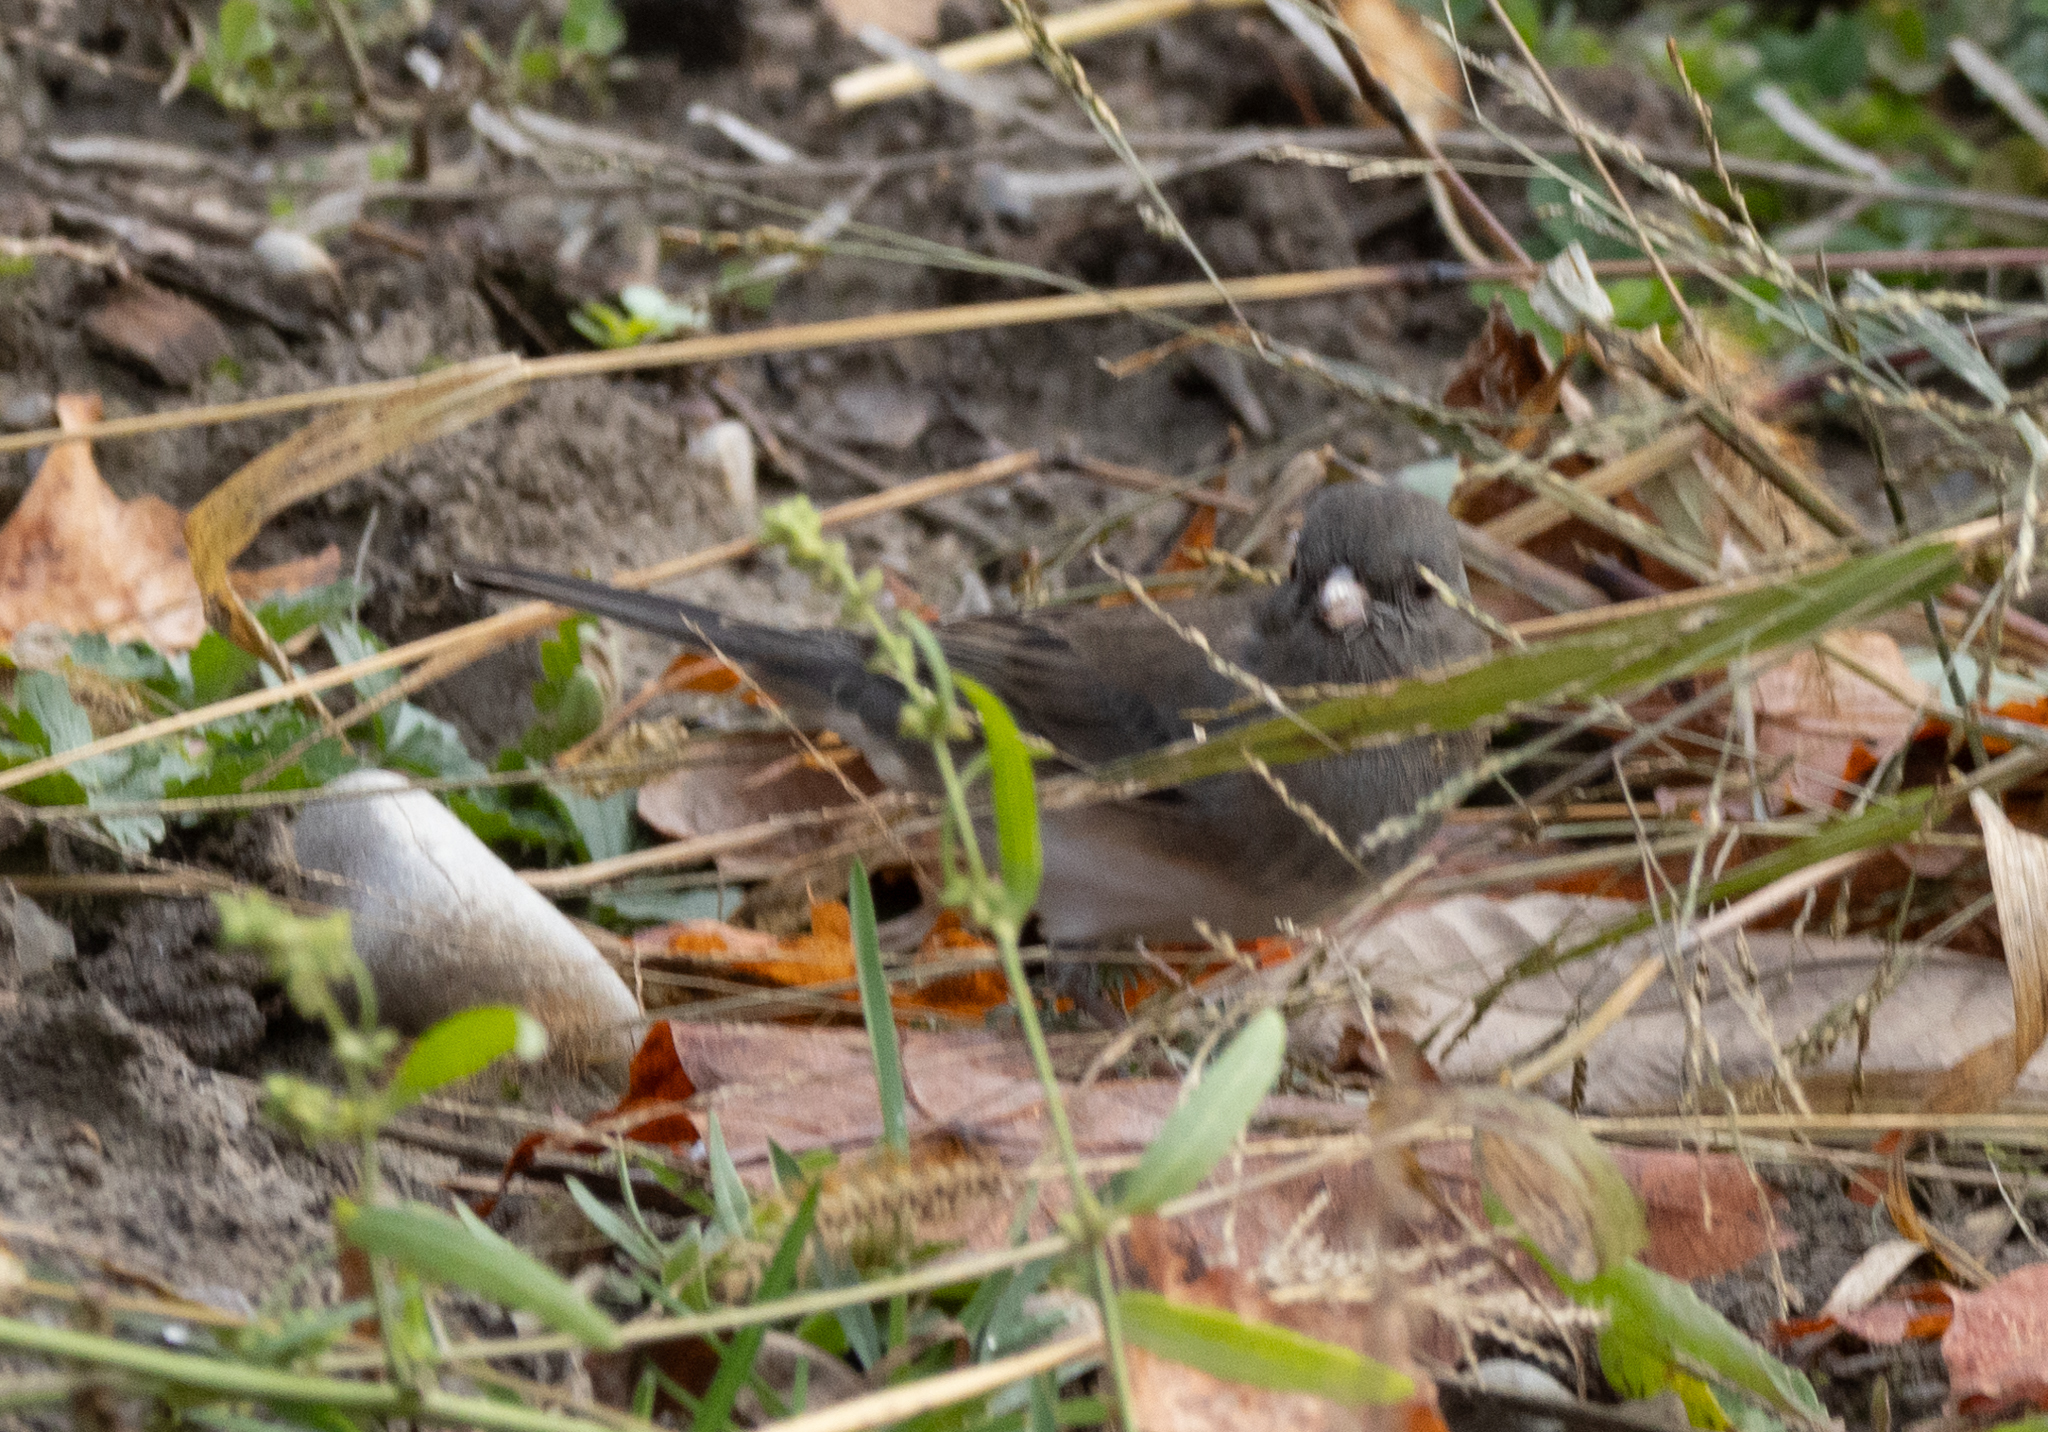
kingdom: Animalia
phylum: Chordata
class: Aves
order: Passeriformes
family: Passerellidae
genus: Junco
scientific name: Junco hyemalis
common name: Dark-eyed junco
